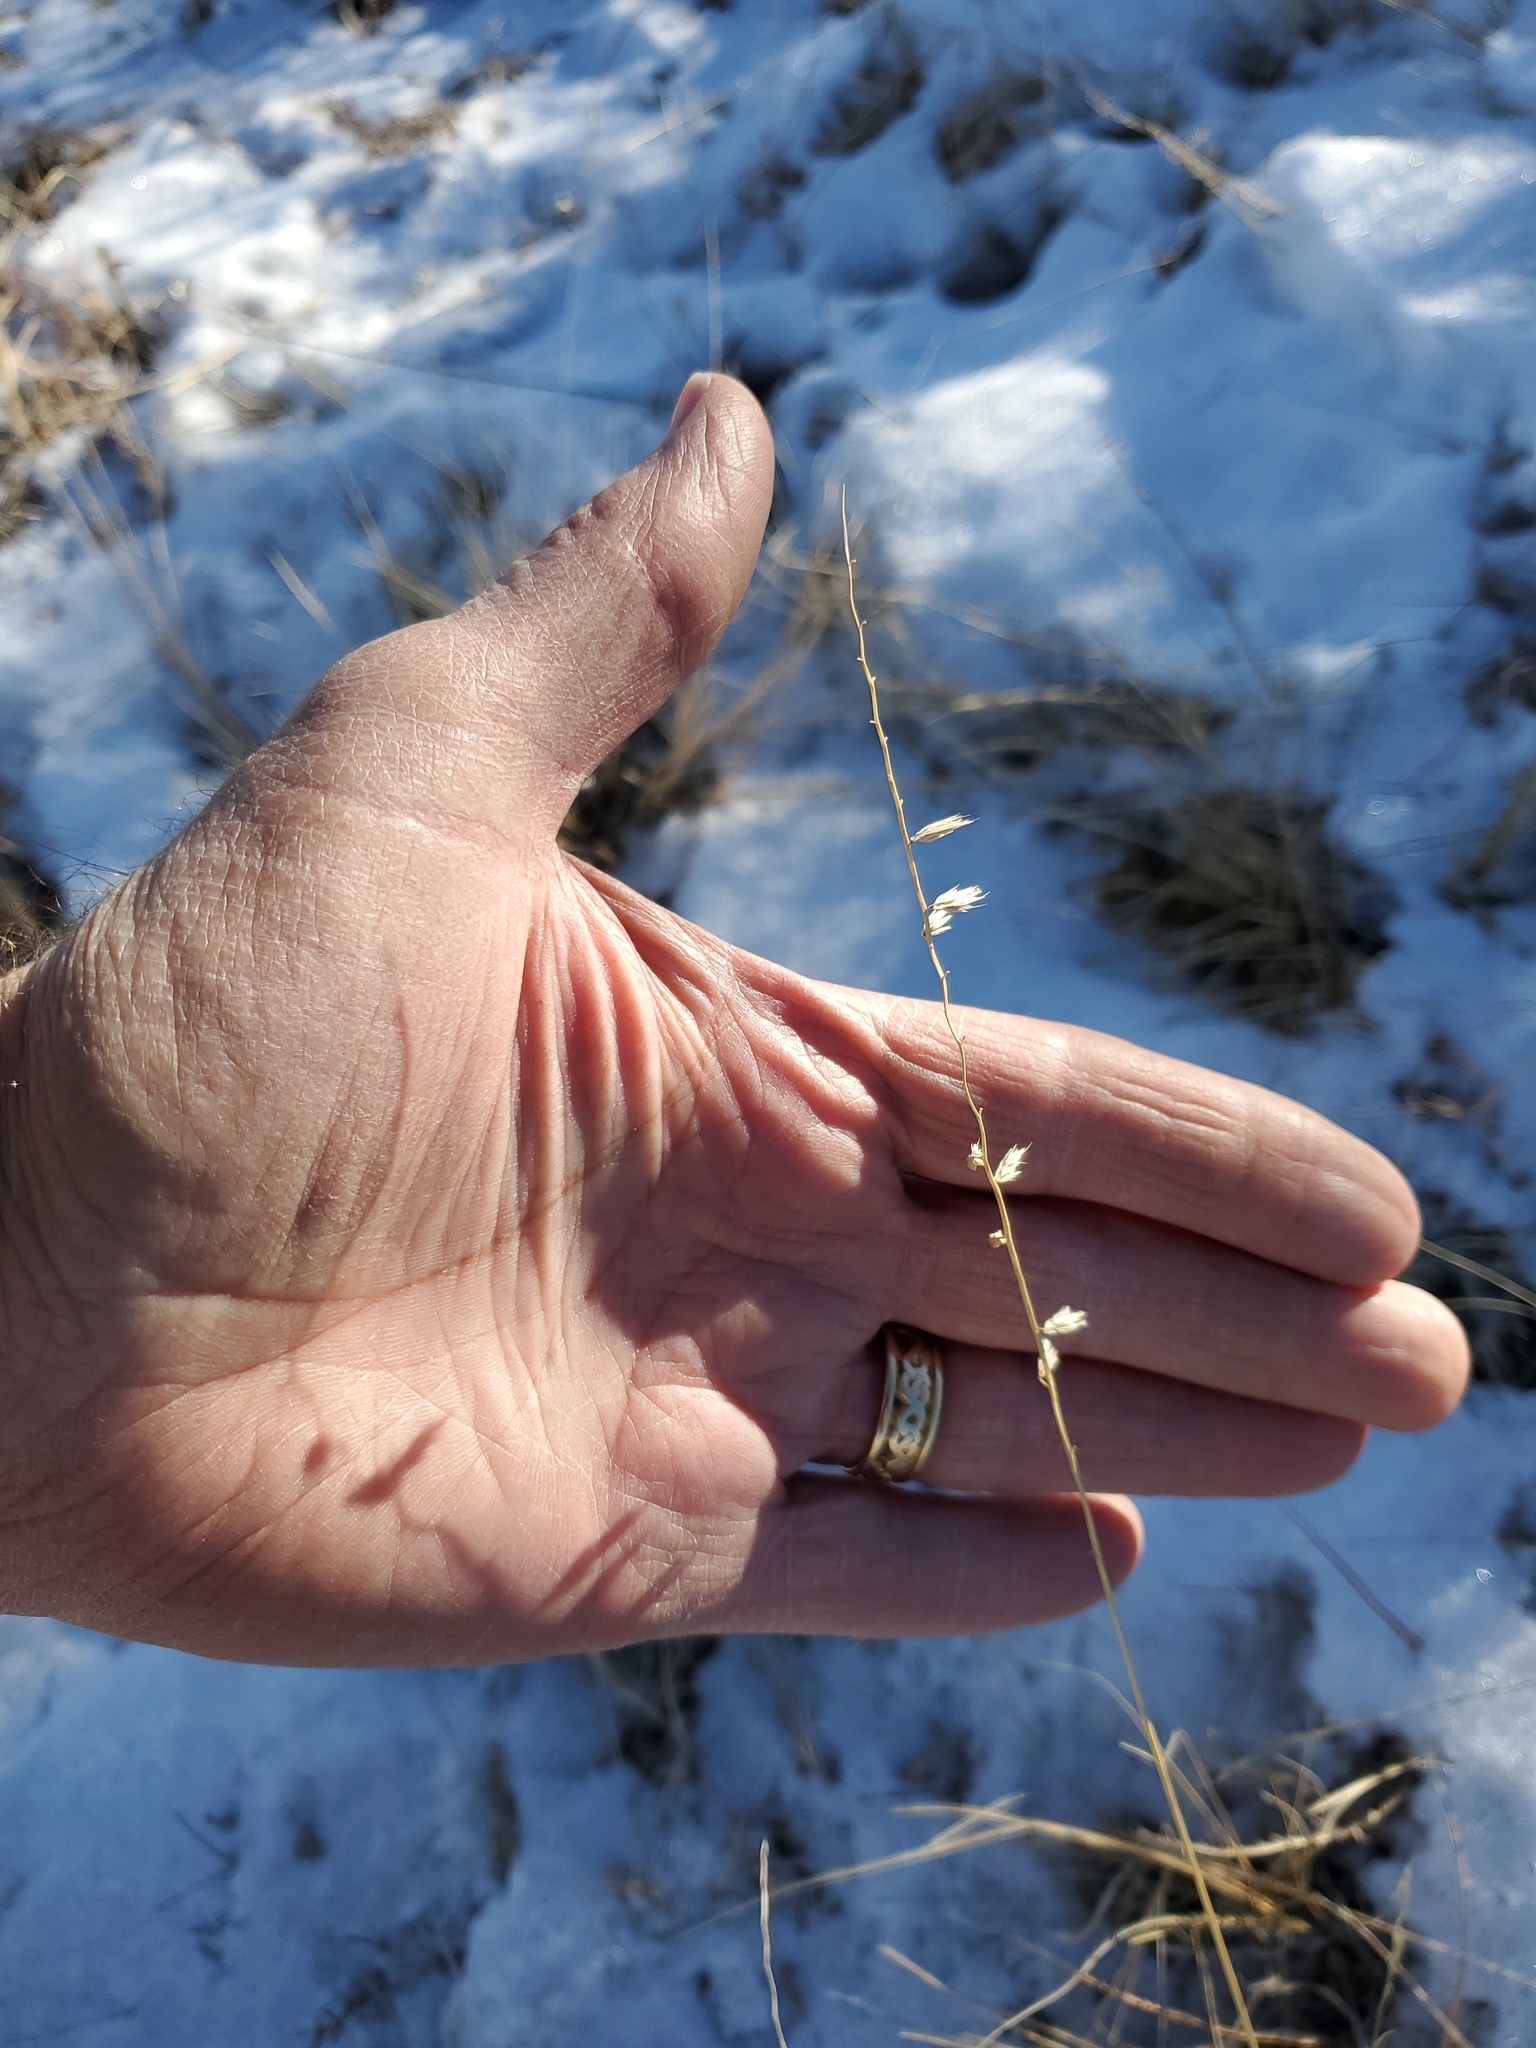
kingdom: Plantae
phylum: Tracheophyta
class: Liliopsida
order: Poales
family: Poaceae
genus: Bouteloua
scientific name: Bouteloua curtipendula
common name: Side-oats grama
